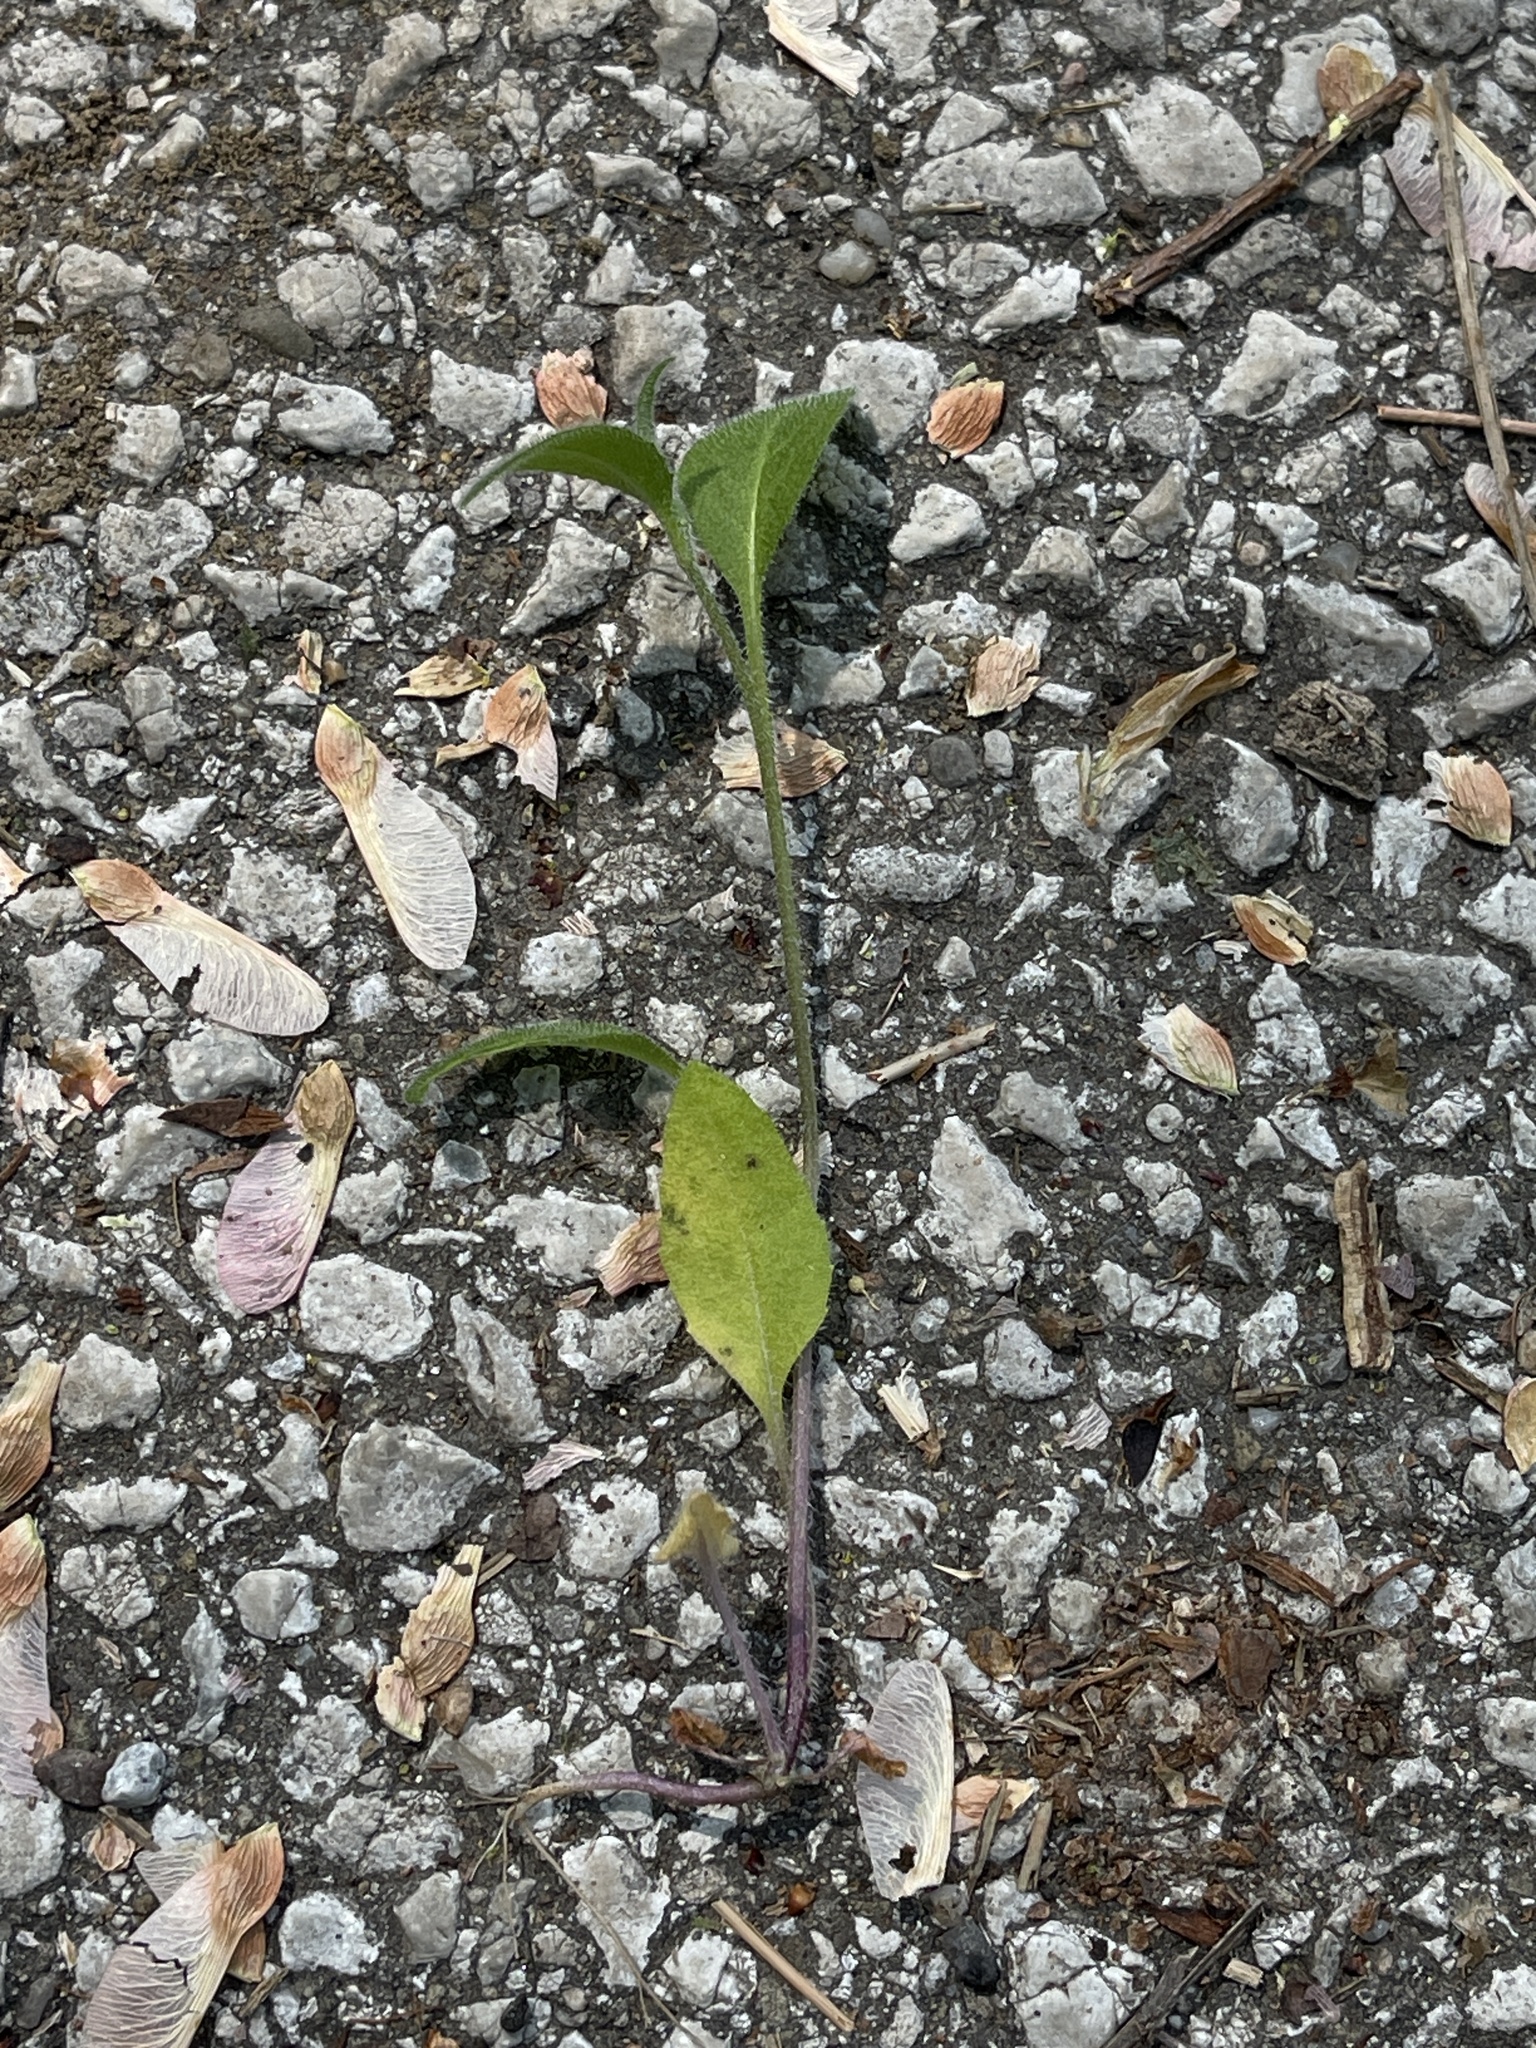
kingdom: Plantae
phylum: Tracheophyta
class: Magnoliopsida
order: Brassicales
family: Brassicaceae
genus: Hesperis
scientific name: Hesperis matronalis
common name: Dame's-violet
